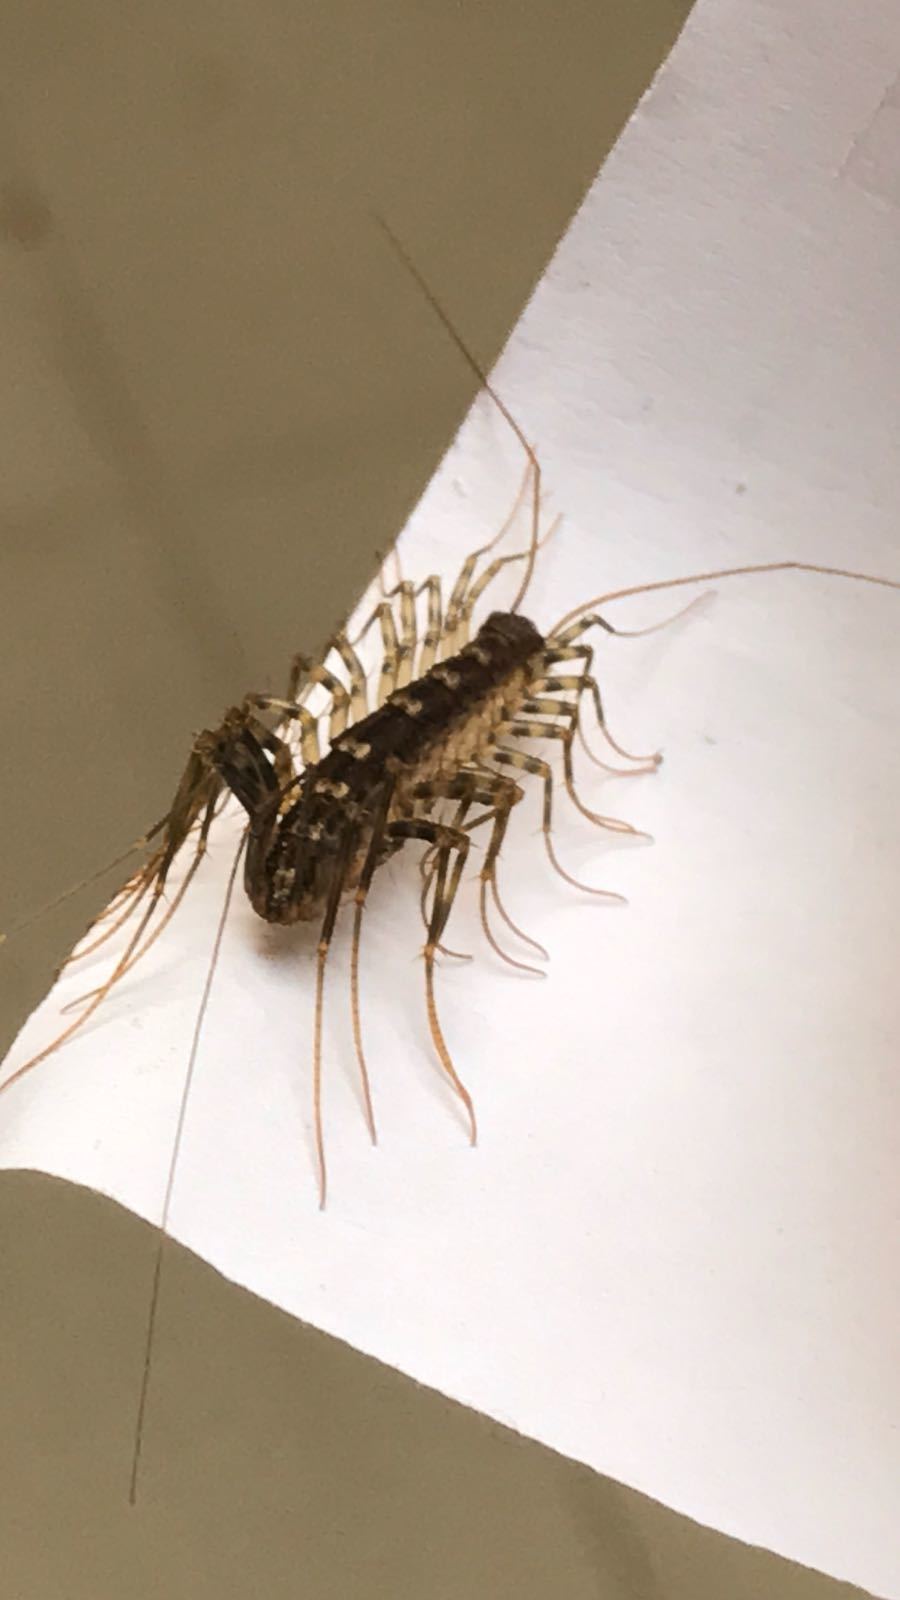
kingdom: Animalia
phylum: Arthropoda
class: Chilopoda
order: Scutigeromorpha
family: Scutigeridae
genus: Scutigera
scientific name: Scutigera coleoptrata
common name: House centipede
